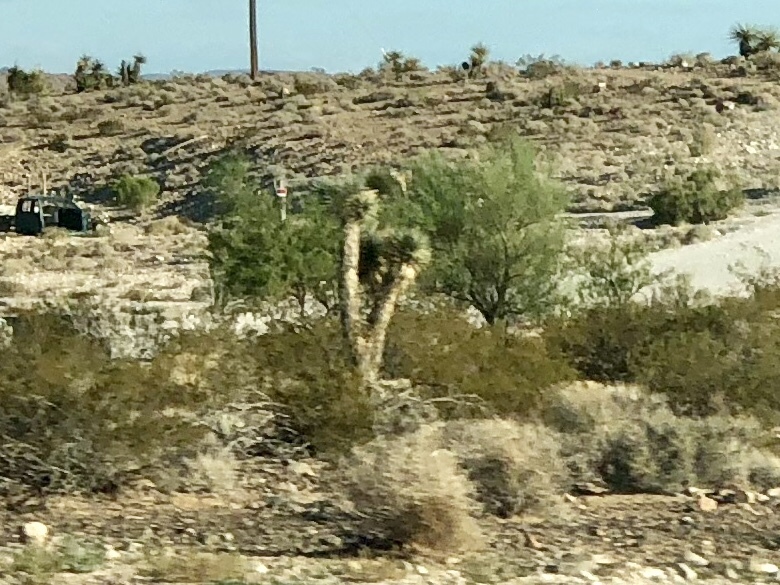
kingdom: Plantae
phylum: Tracheophyta
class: Liliopsida
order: Asparagales
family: Asparagaceae
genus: Yucca
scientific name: Yucca brevifolia
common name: Joshua tree
